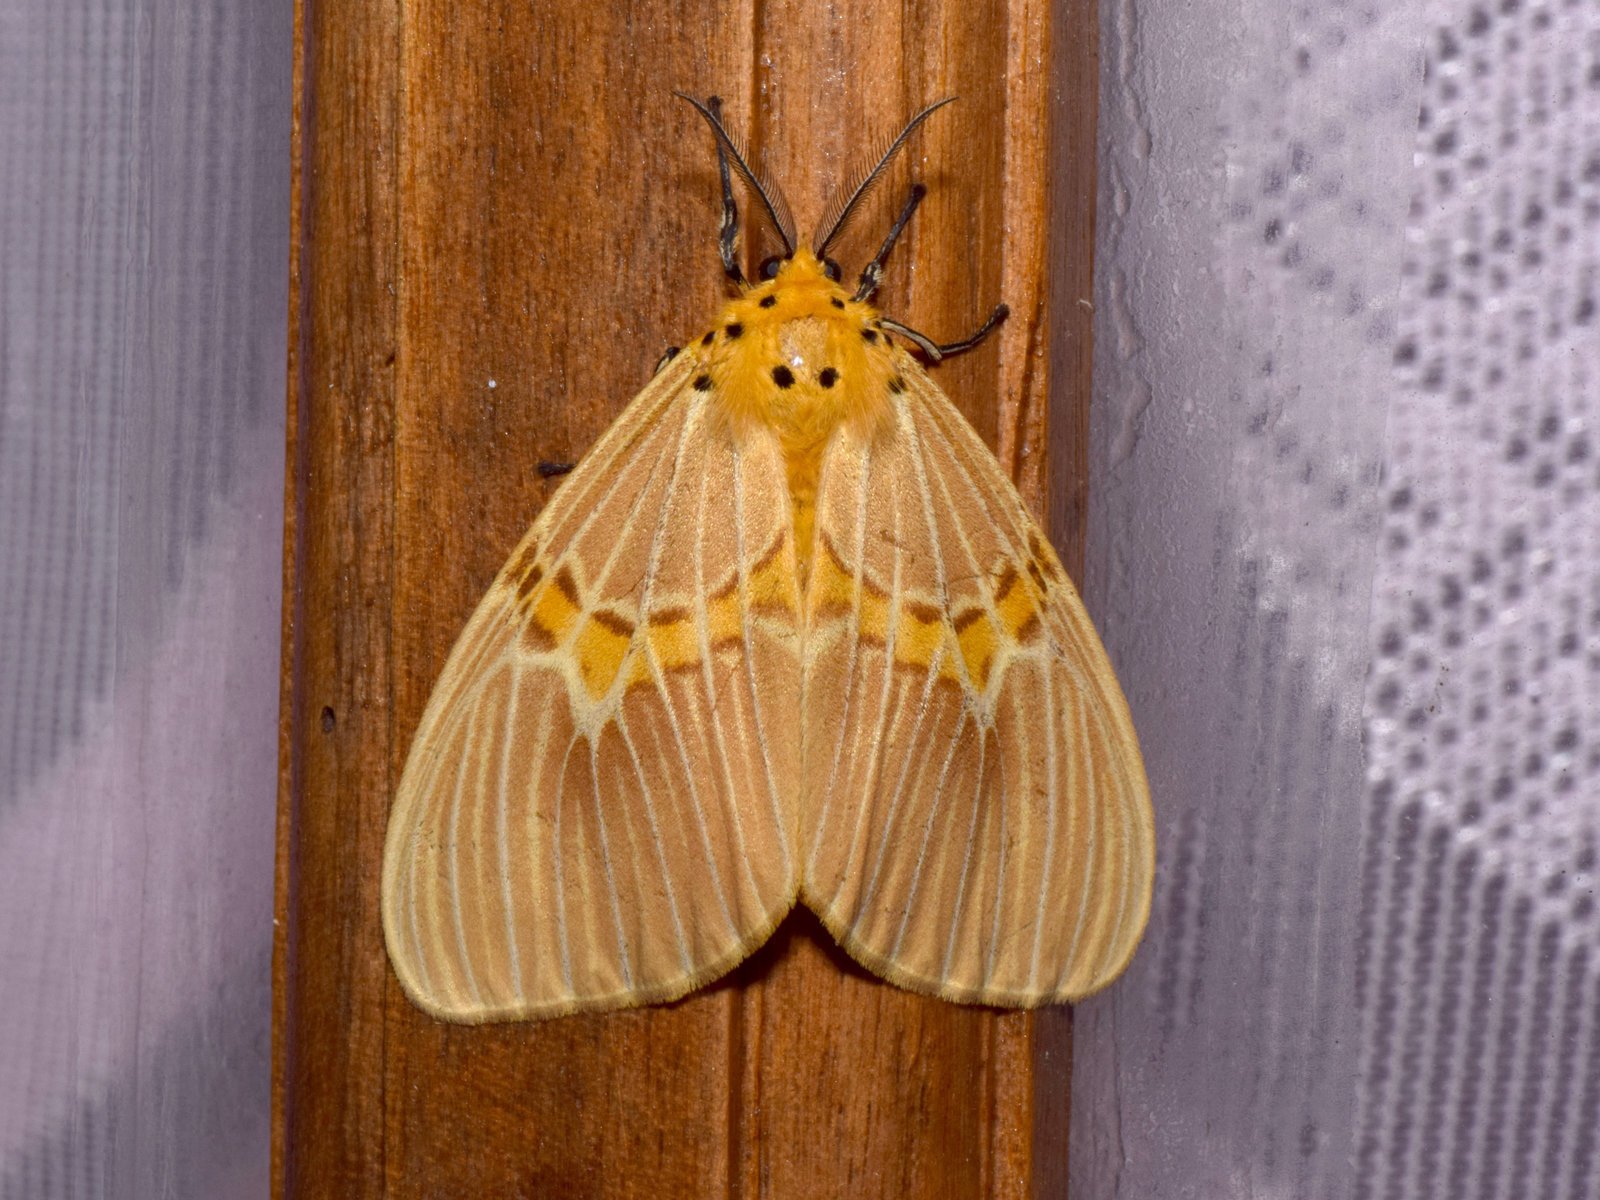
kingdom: Animalia
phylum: Arthropoda
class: Insecta
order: Lepidoptera
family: Erebidae
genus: Cispia
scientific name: Cispia venosa
